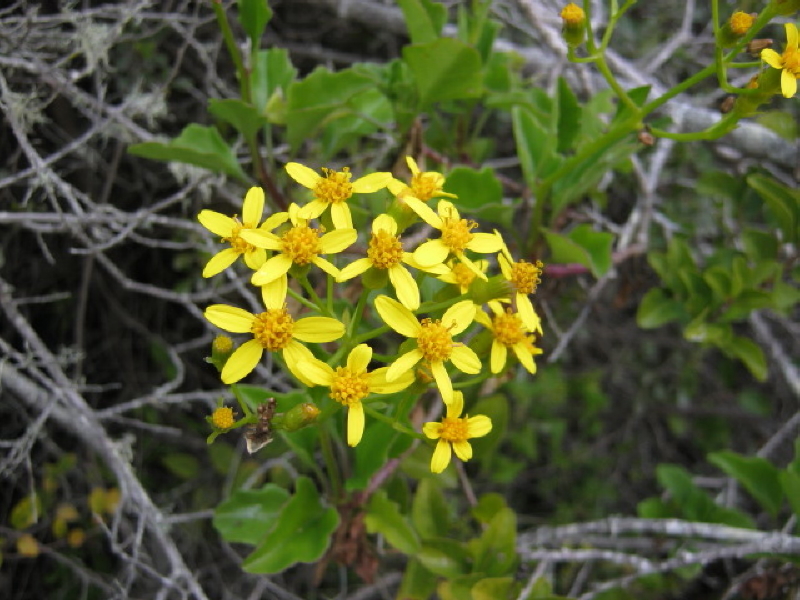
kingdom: Plantae
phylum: Tracheophyta
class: Magnoliopsida
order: Asterales
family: Asteraceae
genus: Senecio
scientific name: Senecio angulatus
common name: Climbing groundsel
